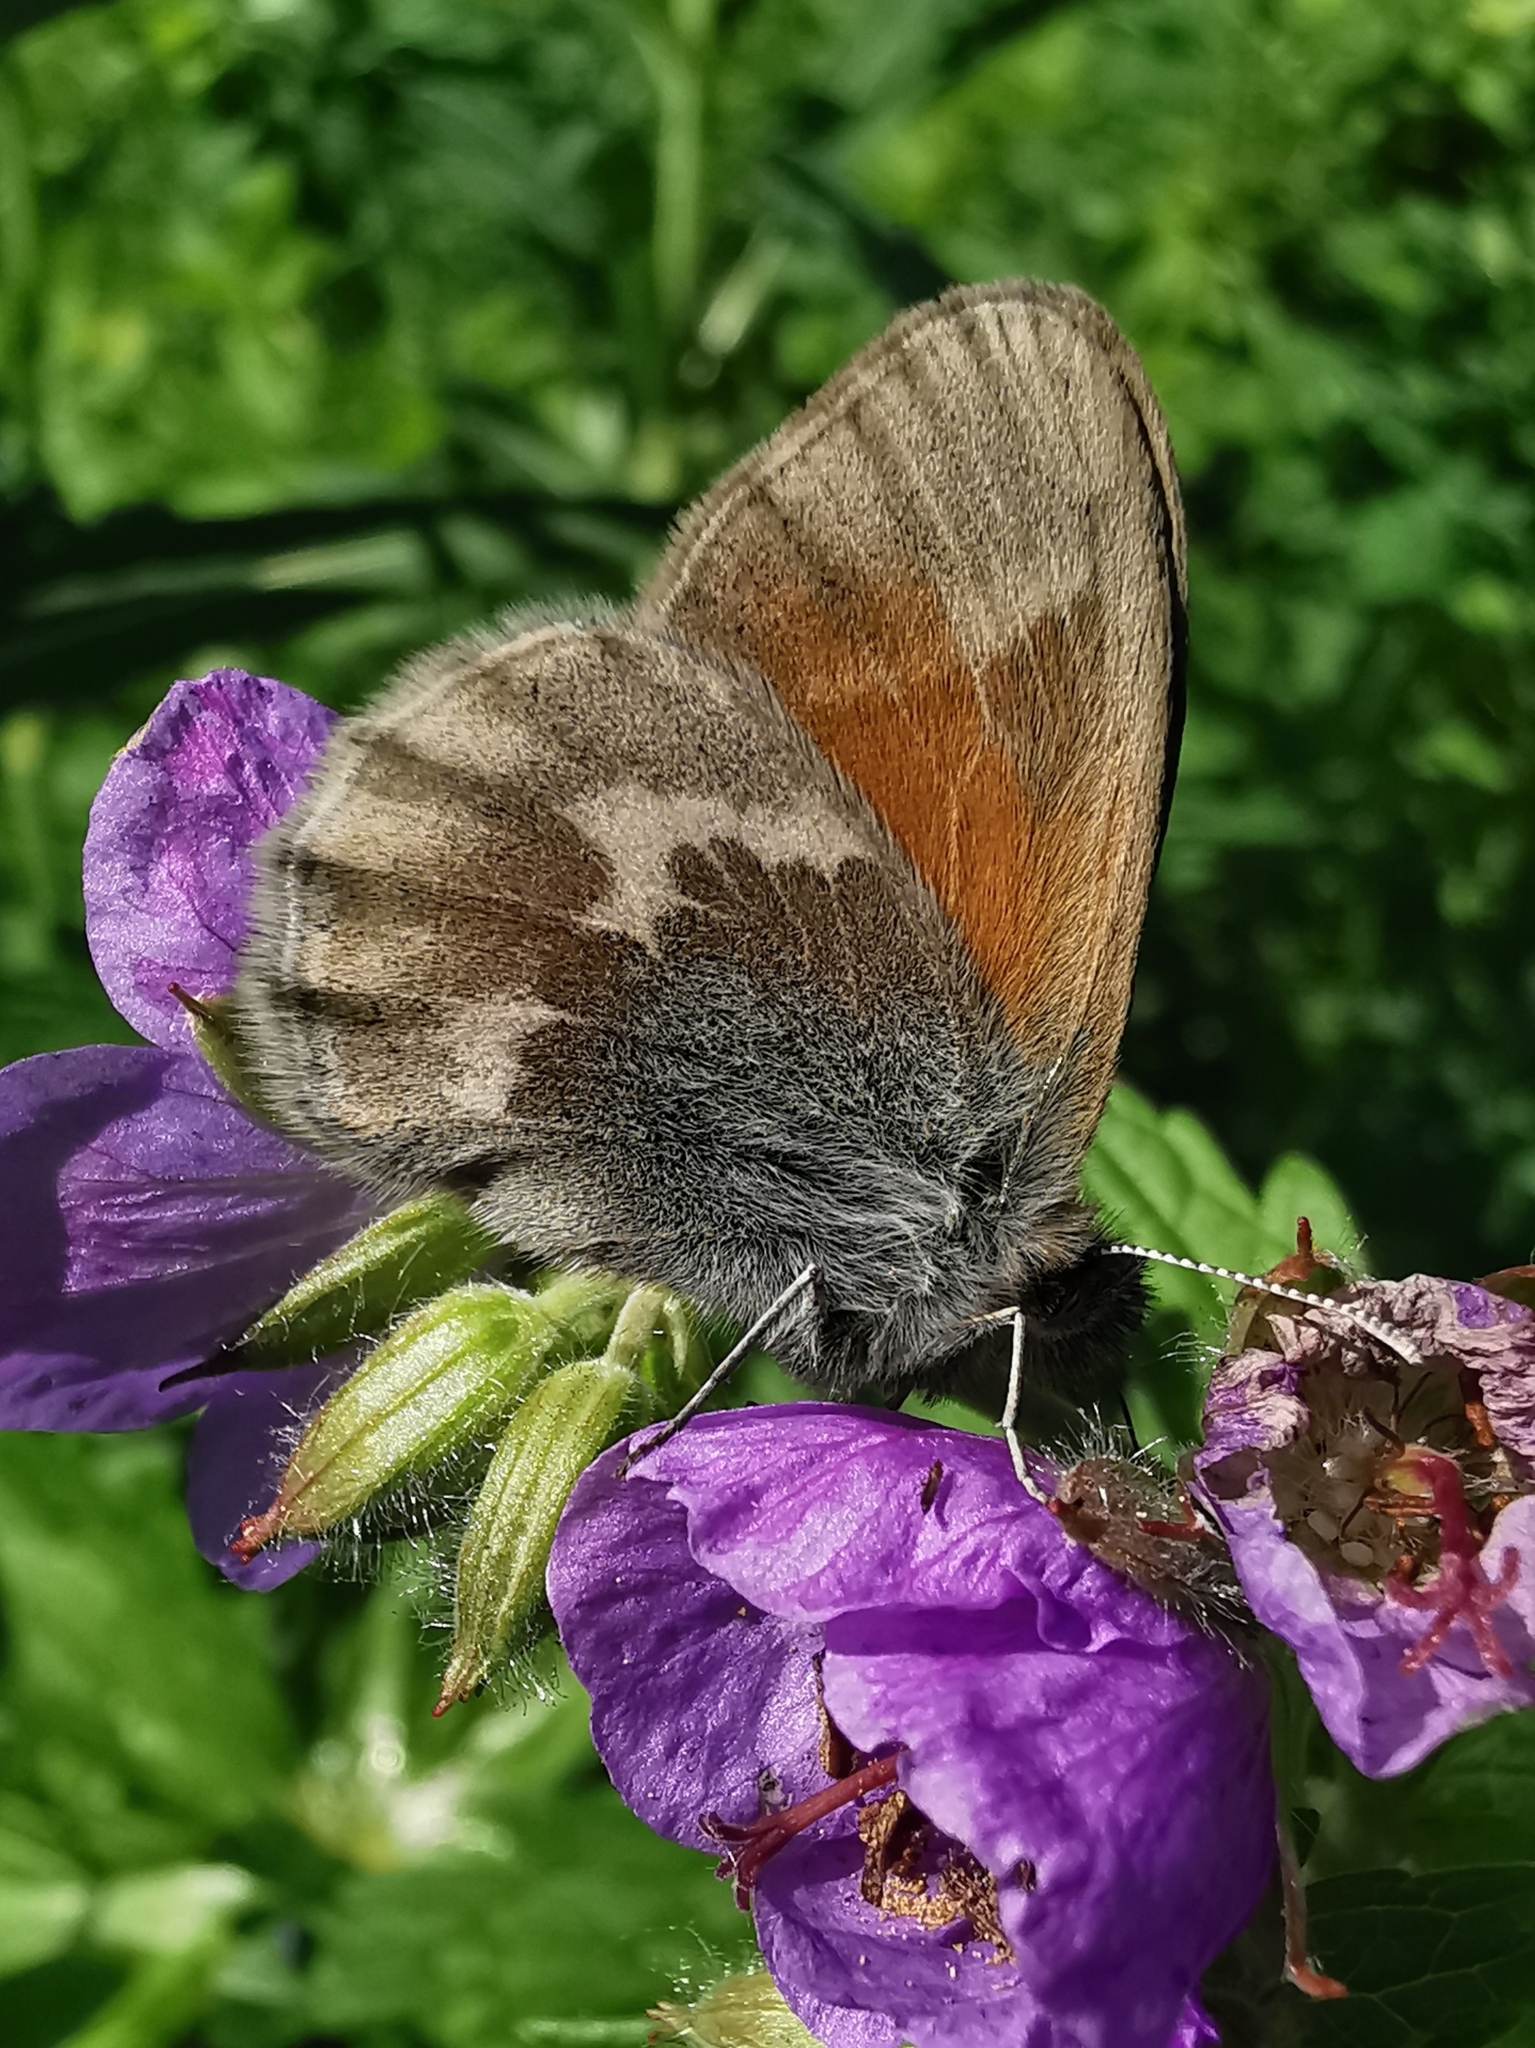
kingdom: Animalia
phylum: Arthropoda
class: Insecta
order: Lepidoptera
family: Nymphalidae
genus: Coenonympha
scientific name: Coenonympha tullia
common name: Large heath
